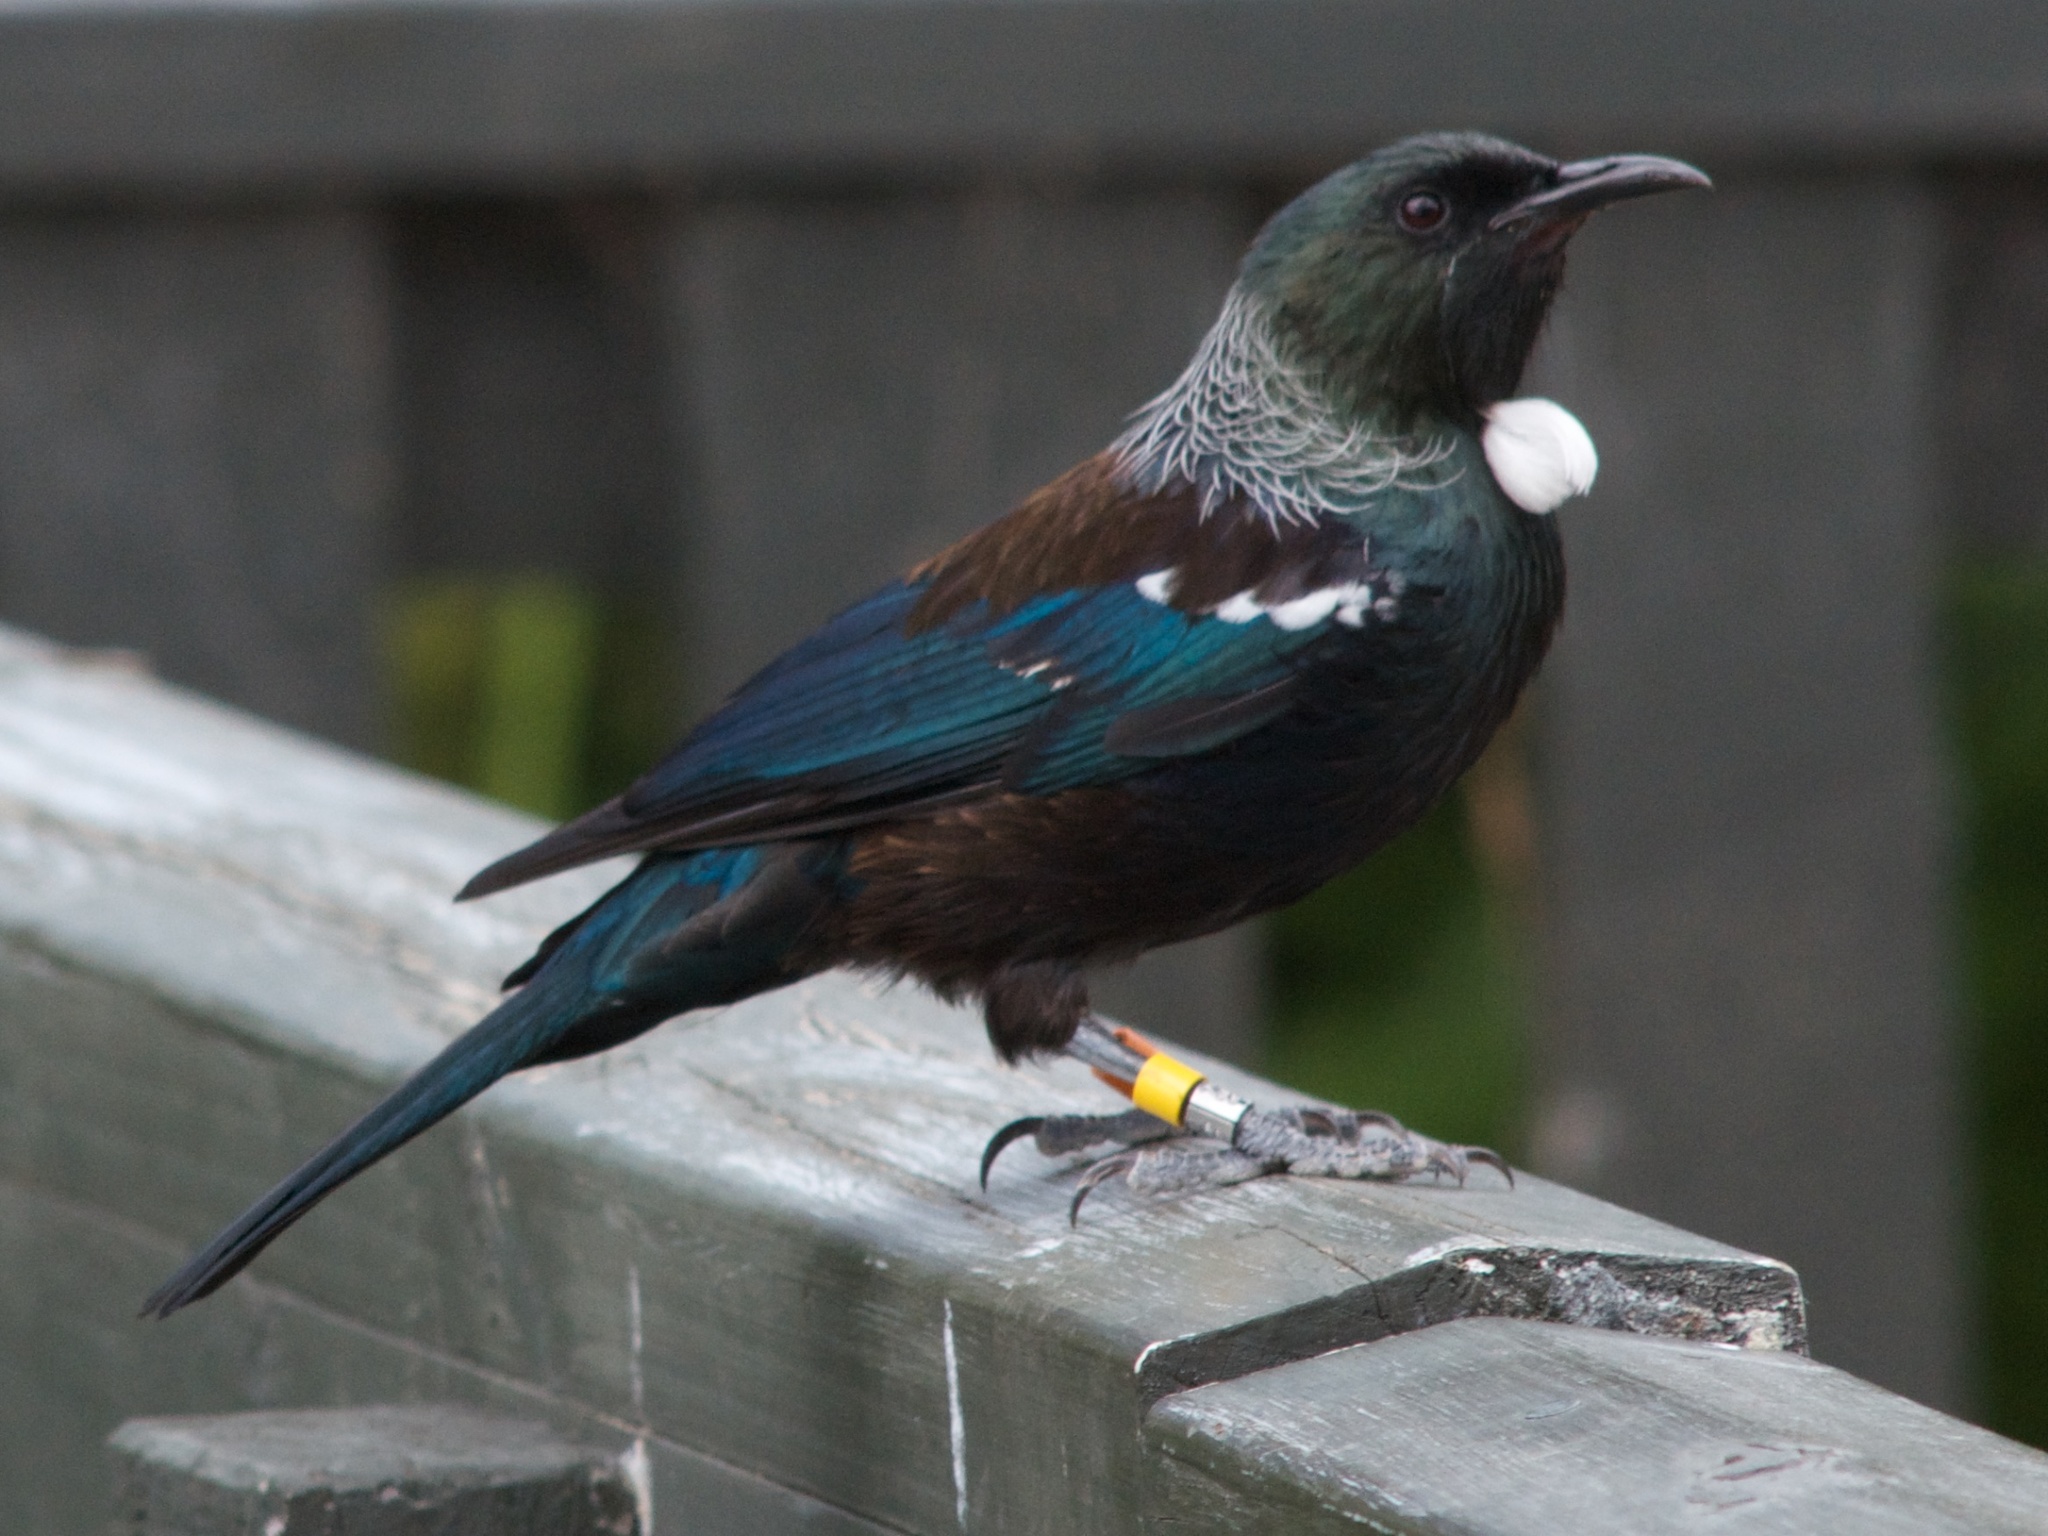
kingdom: Animalia
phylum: Chordata
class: Aves
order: Passeriformes
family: Meliphagidae
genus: Prosthemadera
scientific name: Prosthemadera novaeseelandiae
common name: Tui
